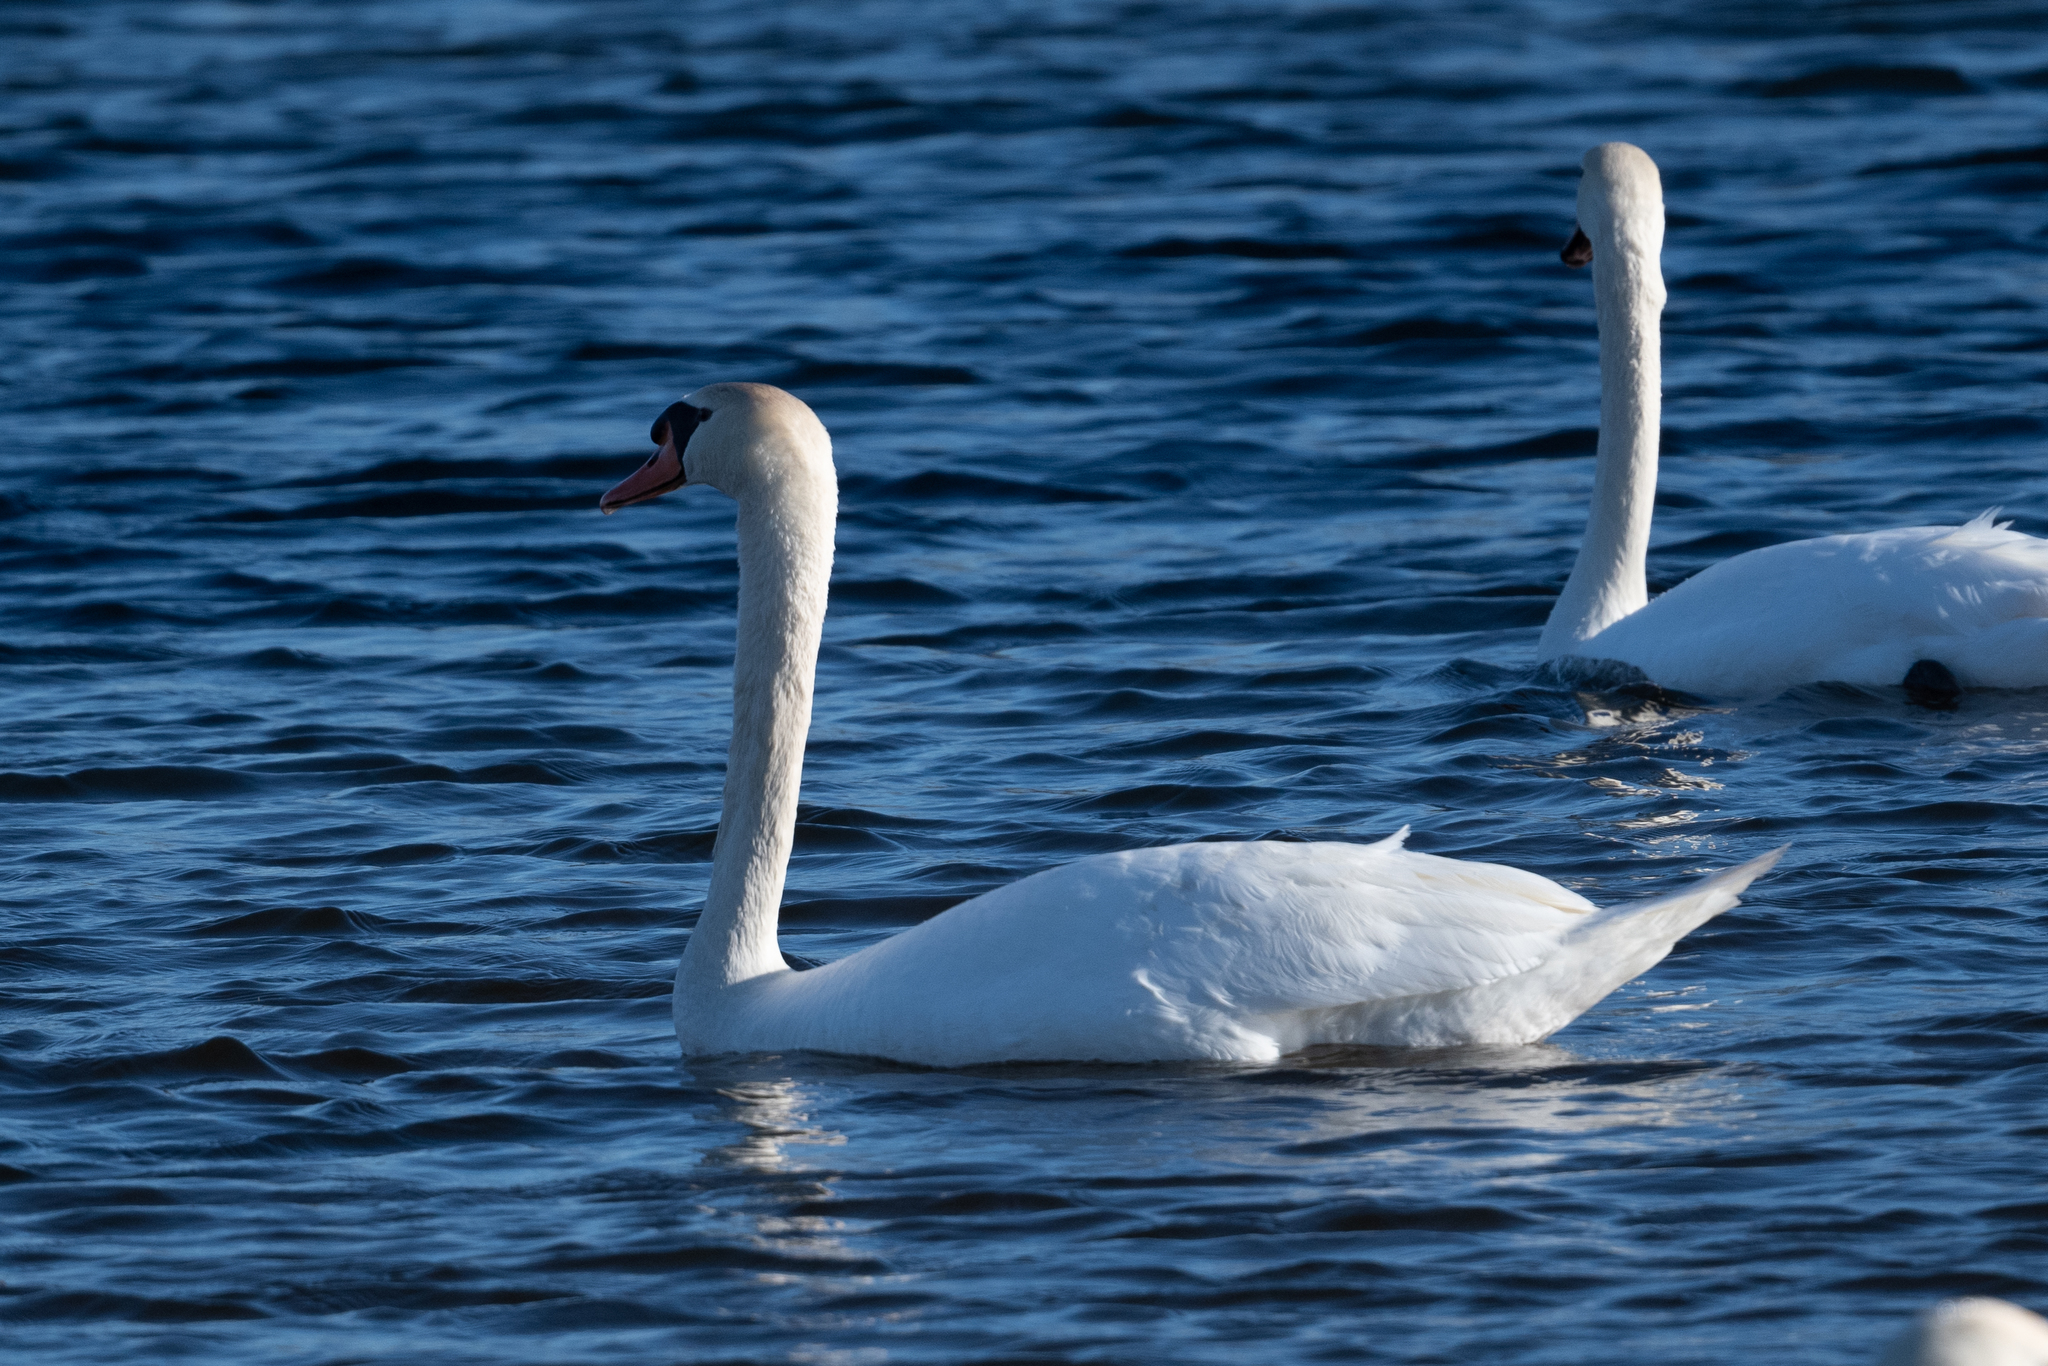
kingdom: Animalia
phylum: Chordata
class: Aves
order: Anseriformes
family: Anatidae
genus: Cygnus
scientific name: Cygnus olor
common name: Mute swan
